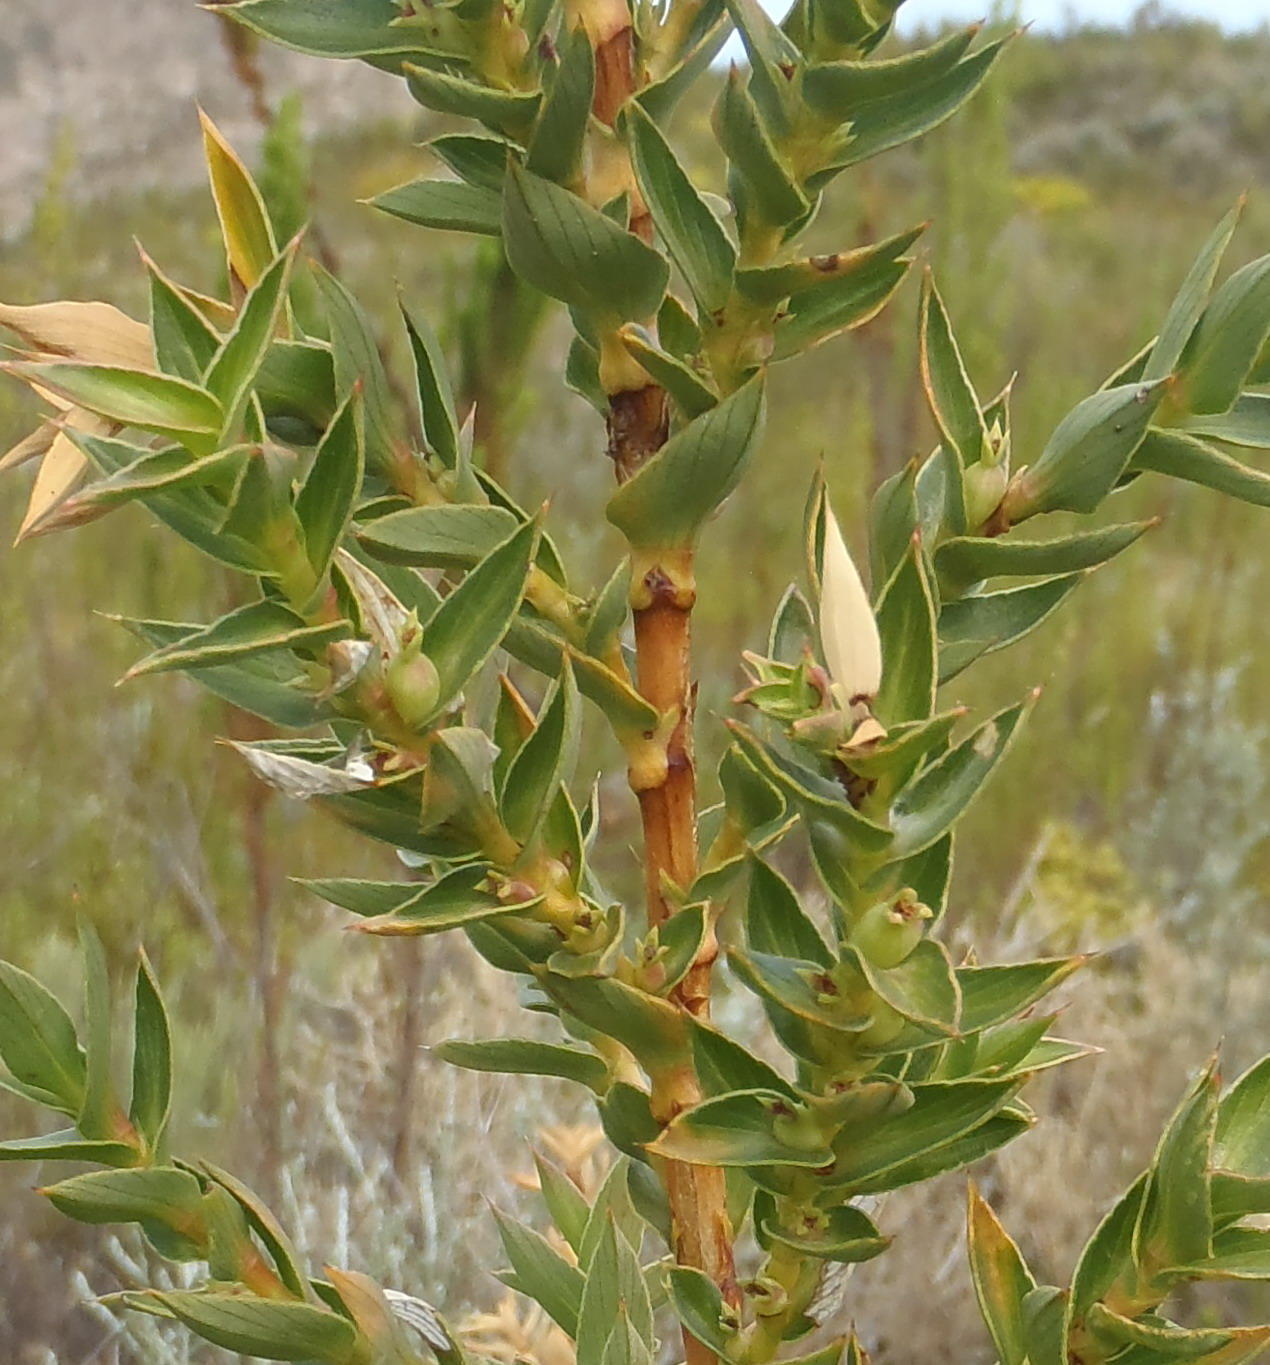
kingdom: Plantae
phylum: Tracheophyta
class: Magnoliopsida
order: Rosales
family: Rosaceae
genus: Cliffortia
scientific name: Cliffortia ilicifolia
